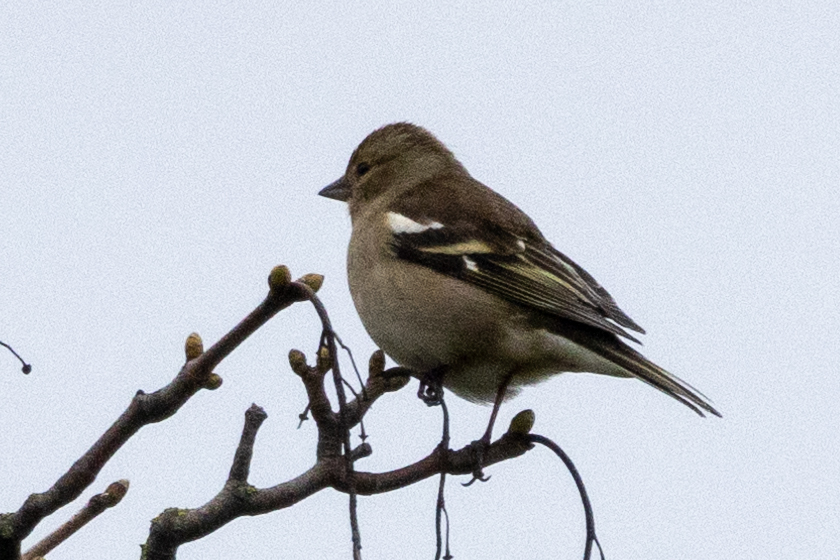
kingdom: Animalia
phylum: Chordata
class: Aves
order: Passeriformes
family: Fringillidae
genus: Fringilla
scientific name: Fringilla coelebs
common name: Common chaffinch
